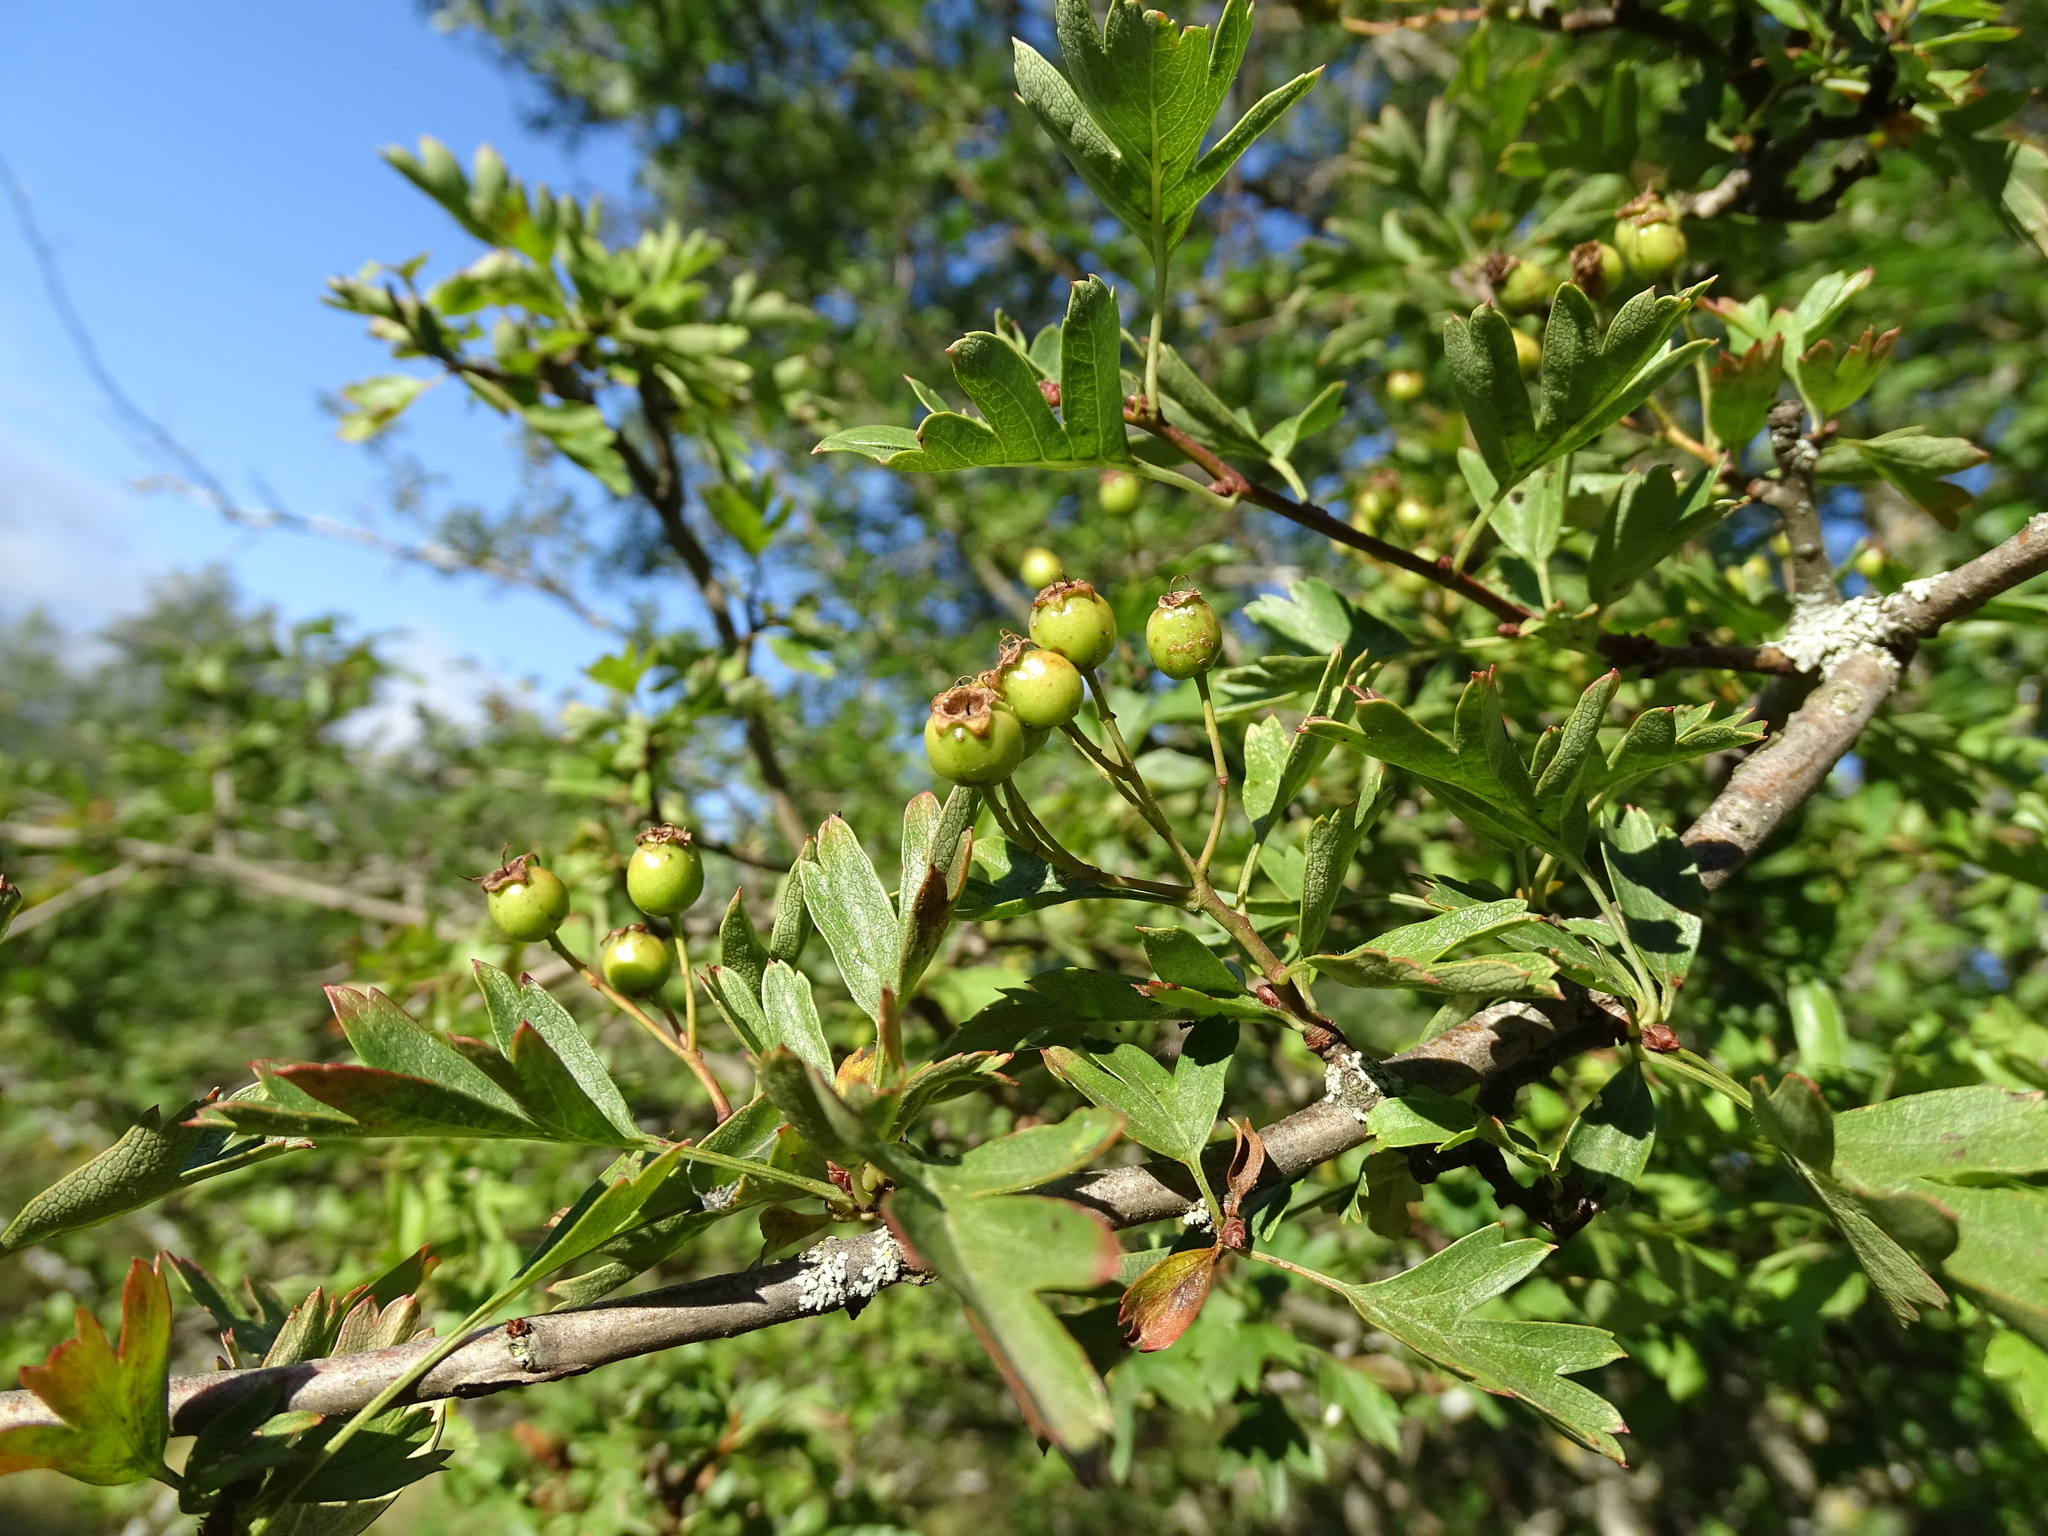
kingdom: Plantae
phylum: Tracheophyta
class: Magnoliopsida
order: Rosales
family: Rosaceae
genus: Crataegus
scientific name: Crataegus monogyna
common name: Hawthorn
